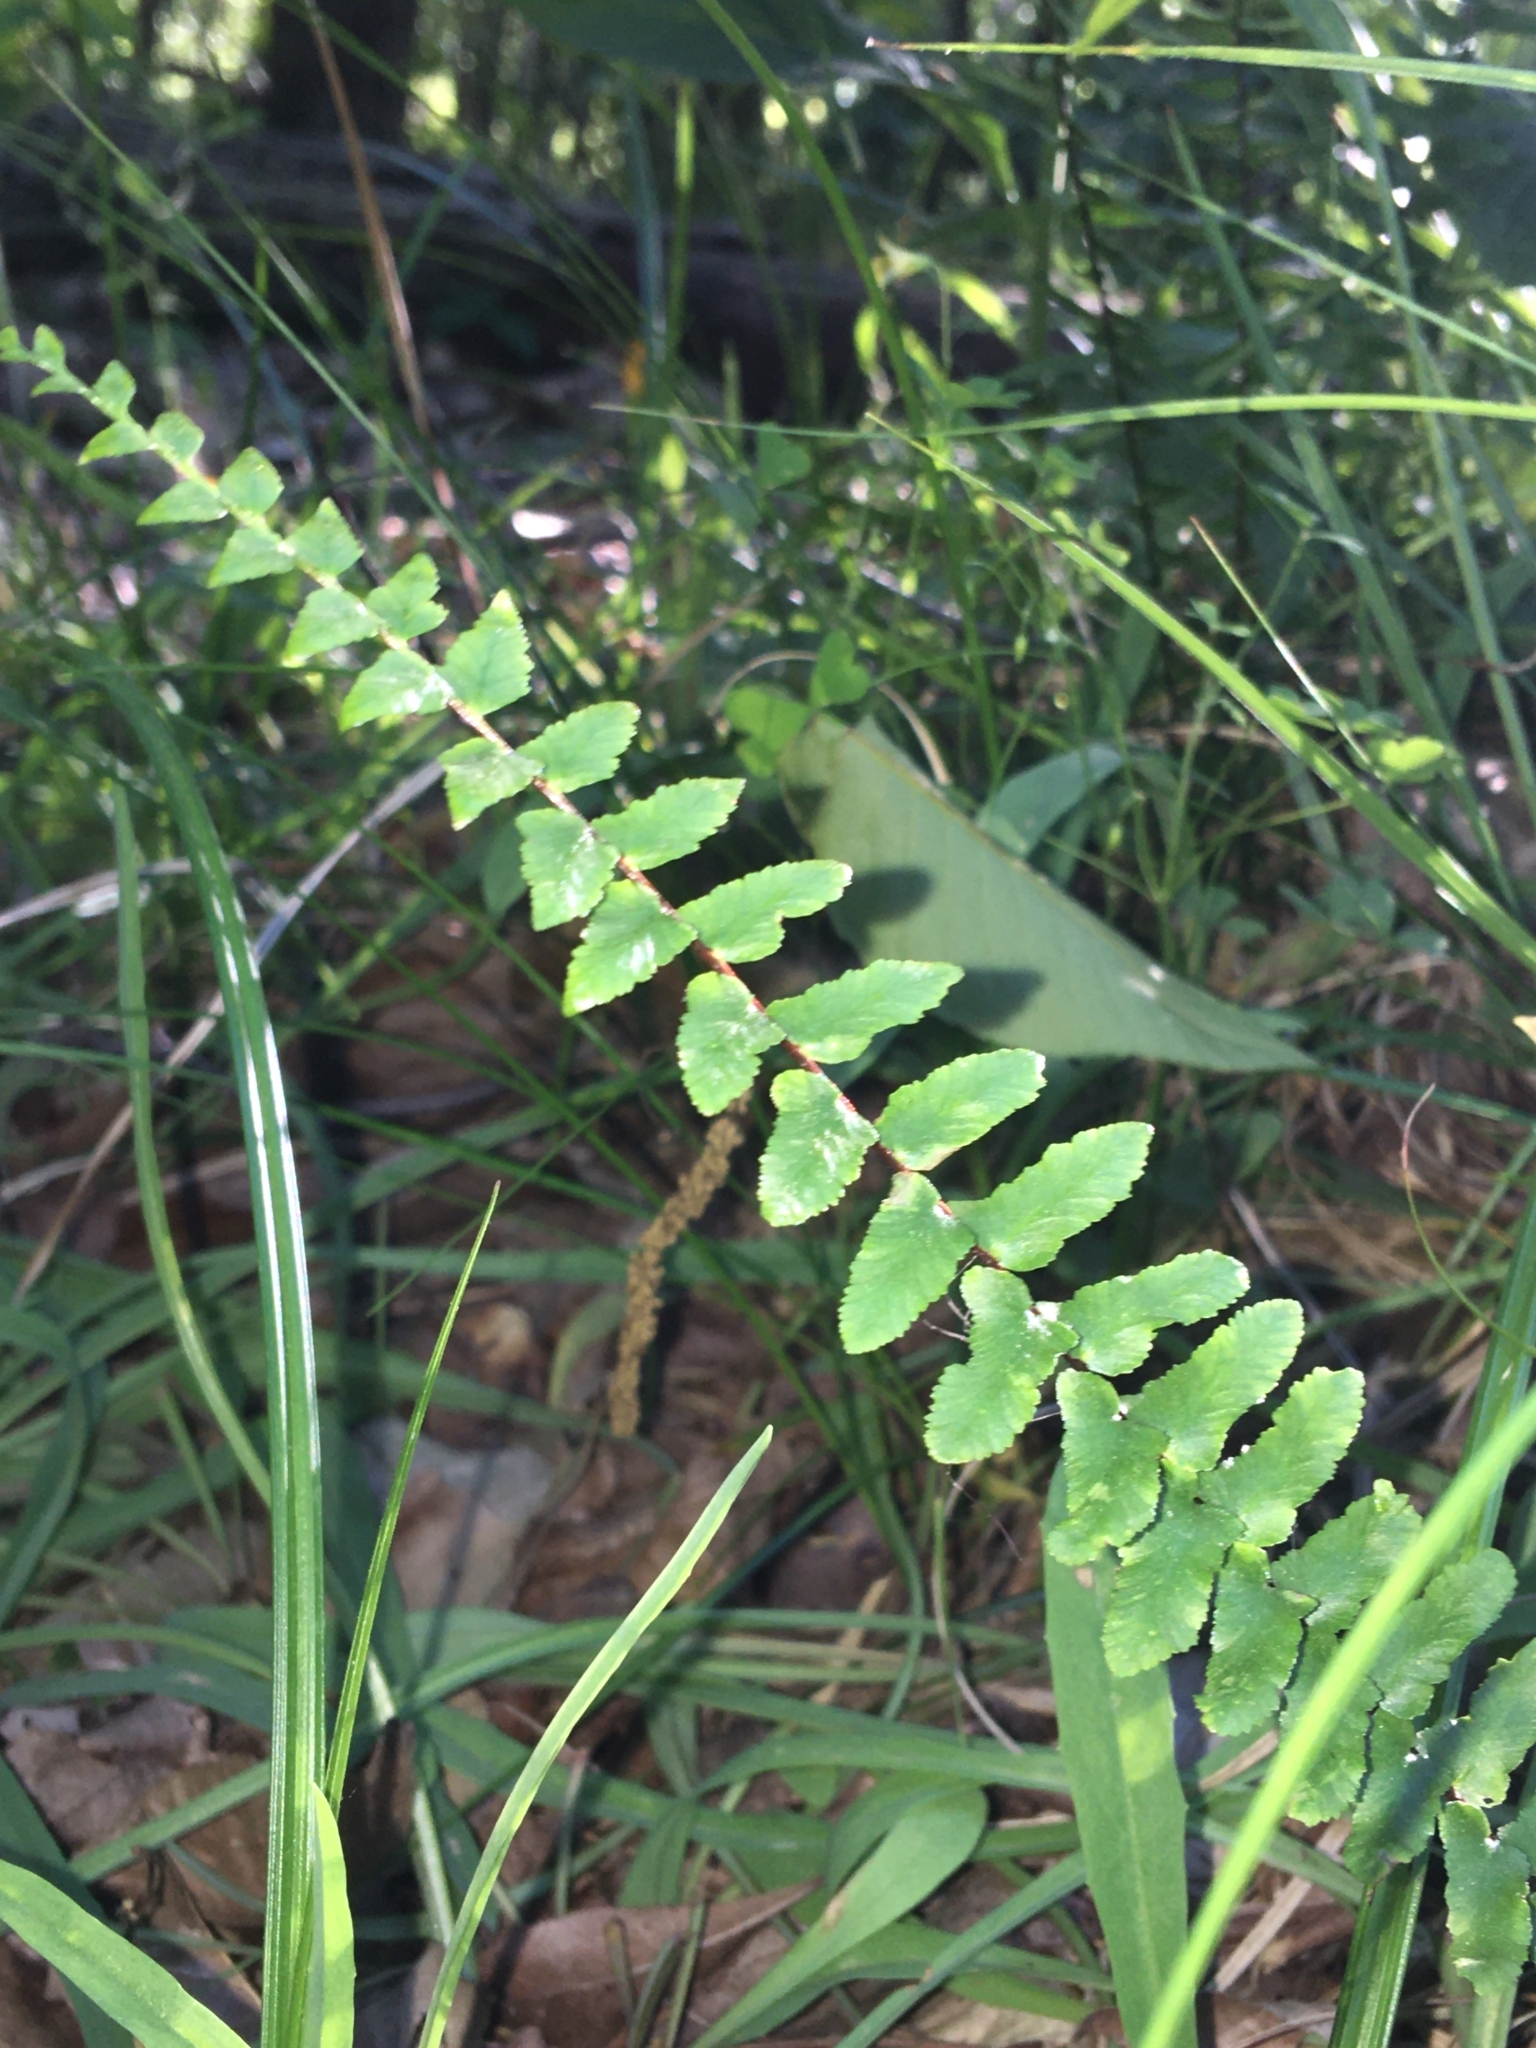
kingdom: Plantae
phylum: Tracheophyta
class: Polypodiopsida
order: Polypodiales
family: Aspleniaceae
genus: Asplenium
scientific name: Asplenium platyneuron
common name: Ebony spleenwort
